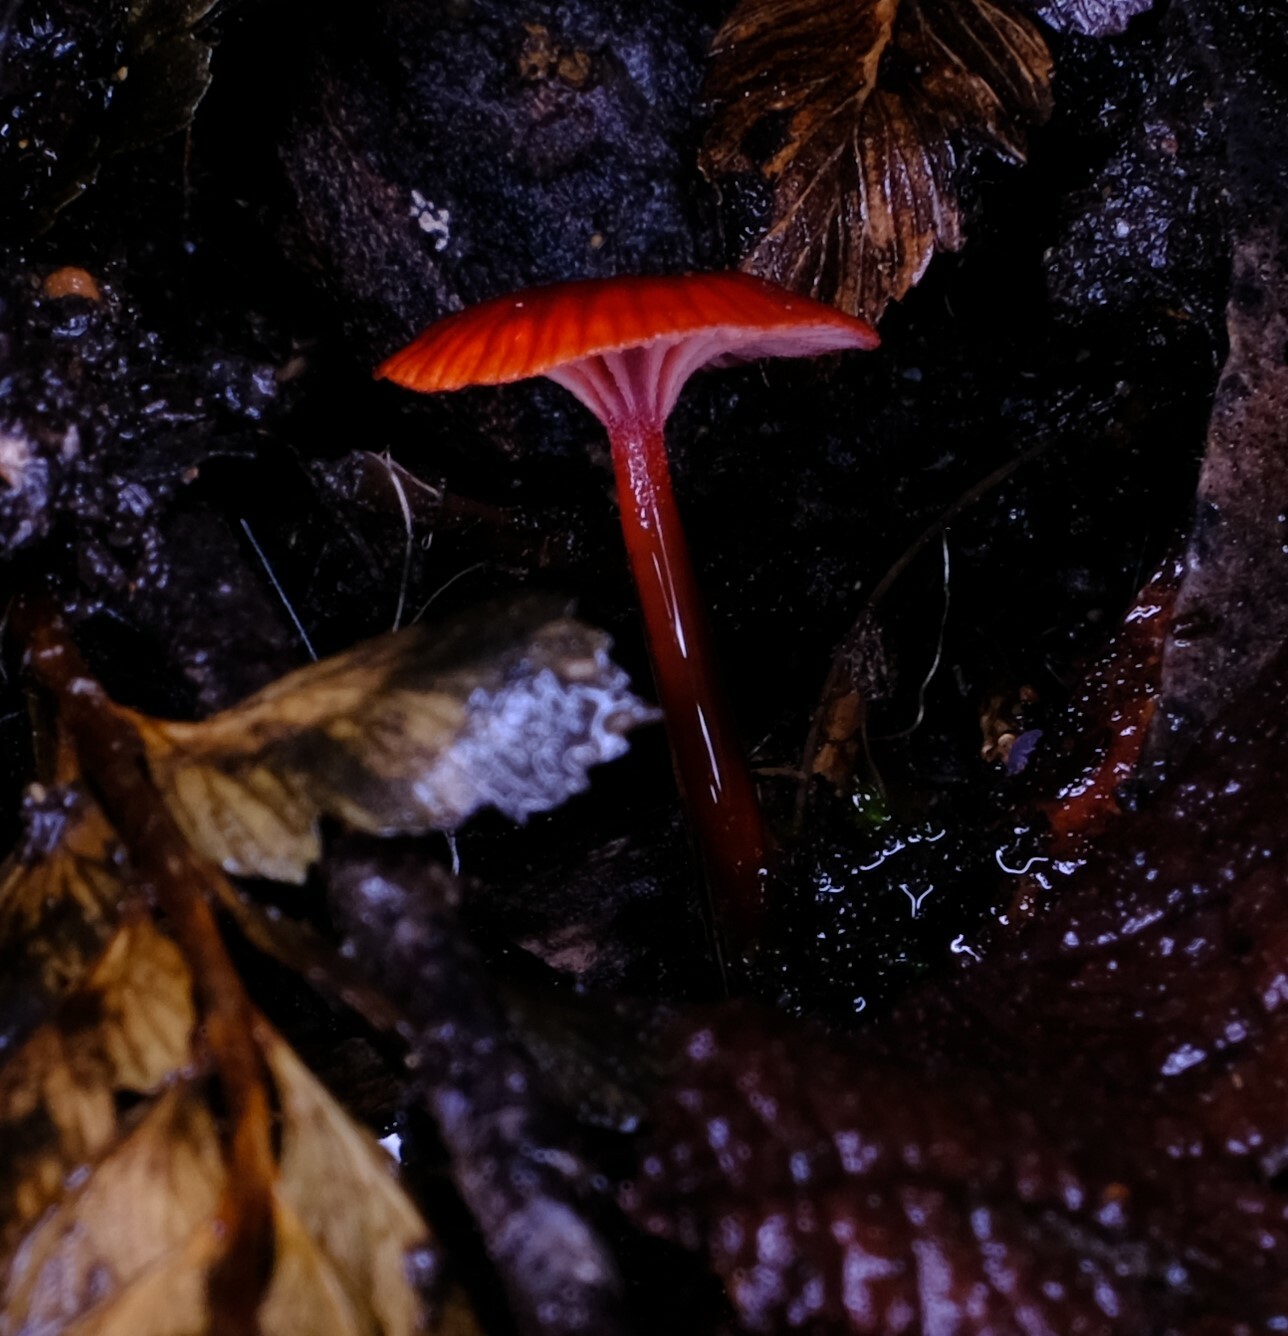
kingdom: Fungi
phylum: Basidiomycota
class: Agaricomycetes
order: Agaricales
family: Mycenaceae
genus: Cruentomycena
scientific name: Cruentomycena viscidocruenta
